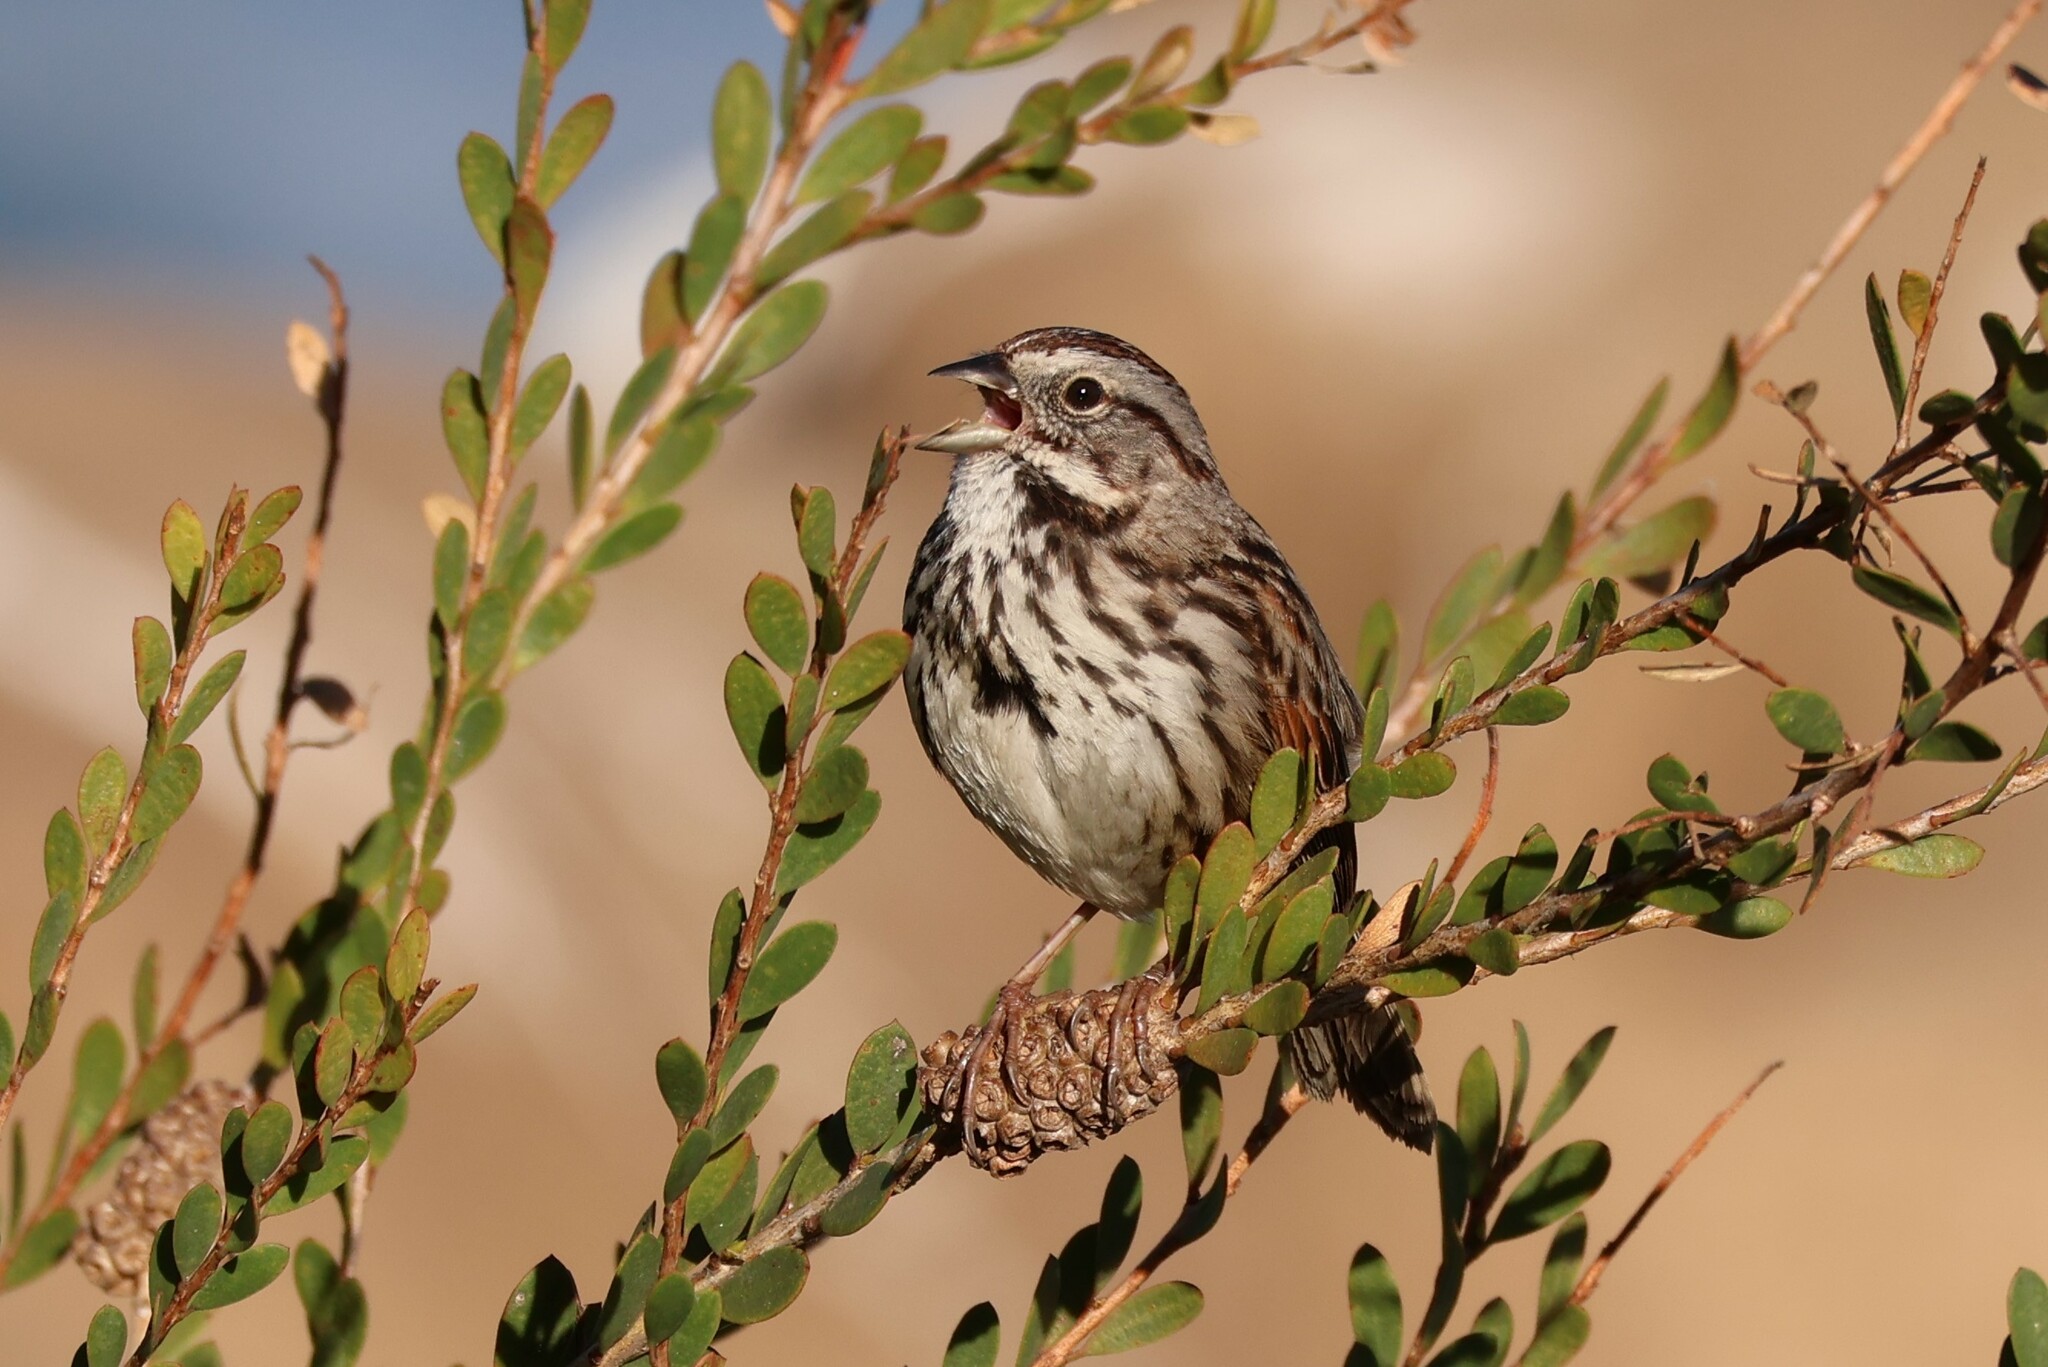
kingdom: Animalia
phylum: Chordata
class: Aves
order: Passeriformes
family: Passerellidae
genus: Melospiza
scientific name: Melospiza melodia
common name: Song sparrow
